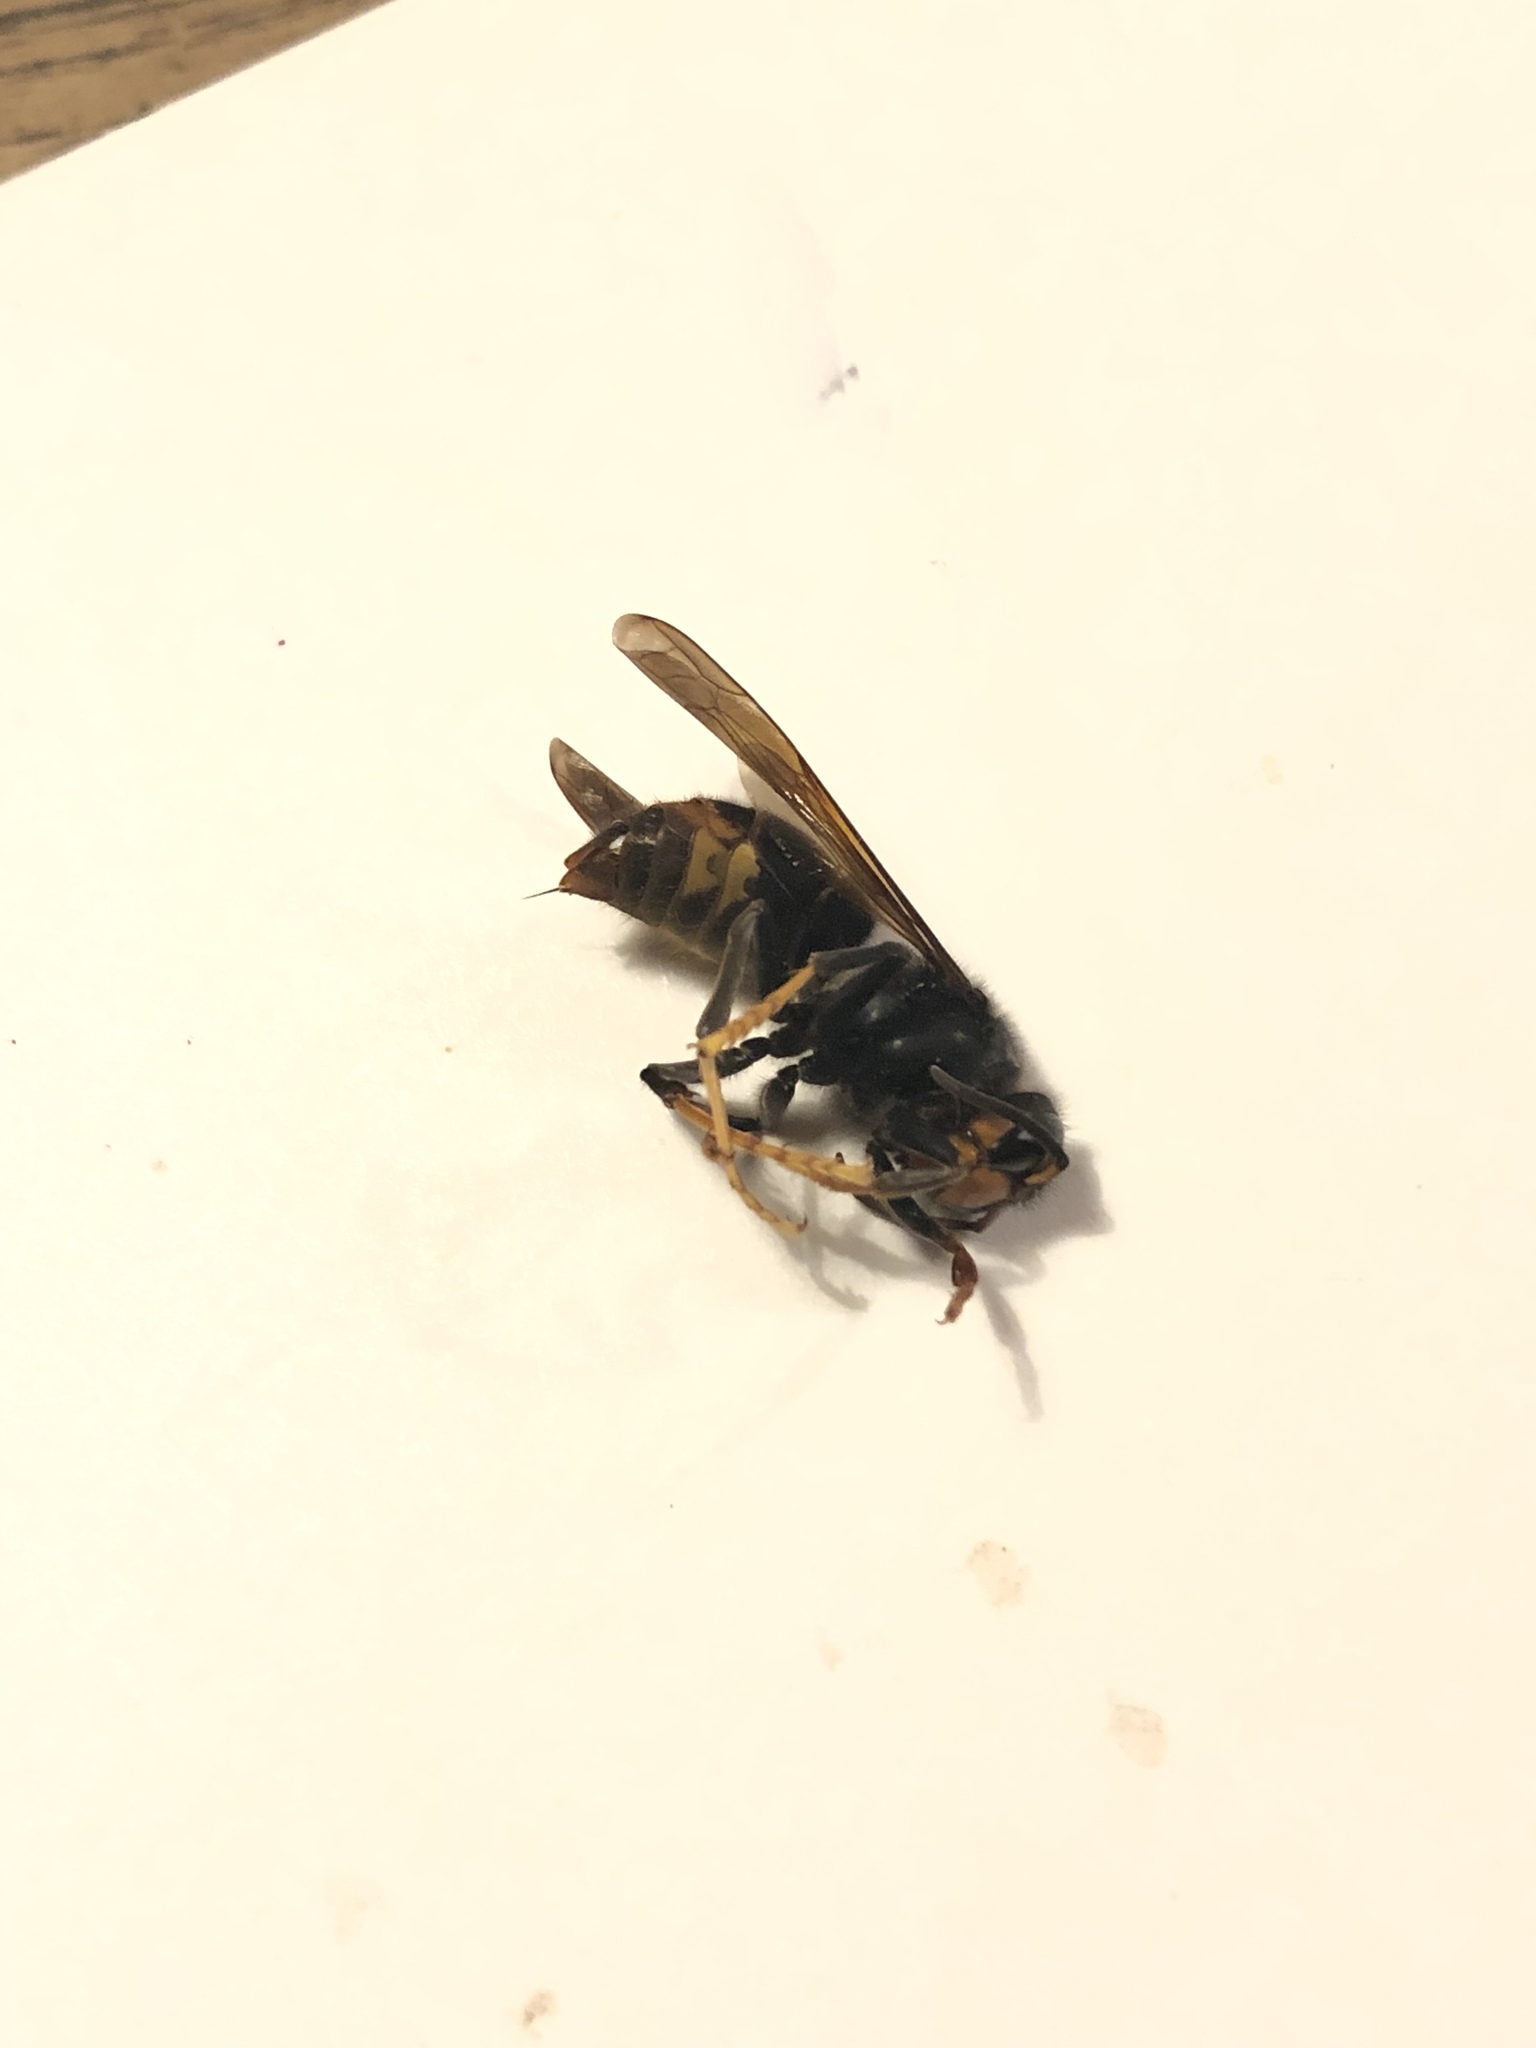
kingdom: Animalia
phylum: Arthropoda
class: Insecta
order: Hymenoptera
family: Vespidae
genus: Vespa
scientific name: Vespa velutina
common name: Asian hornet
